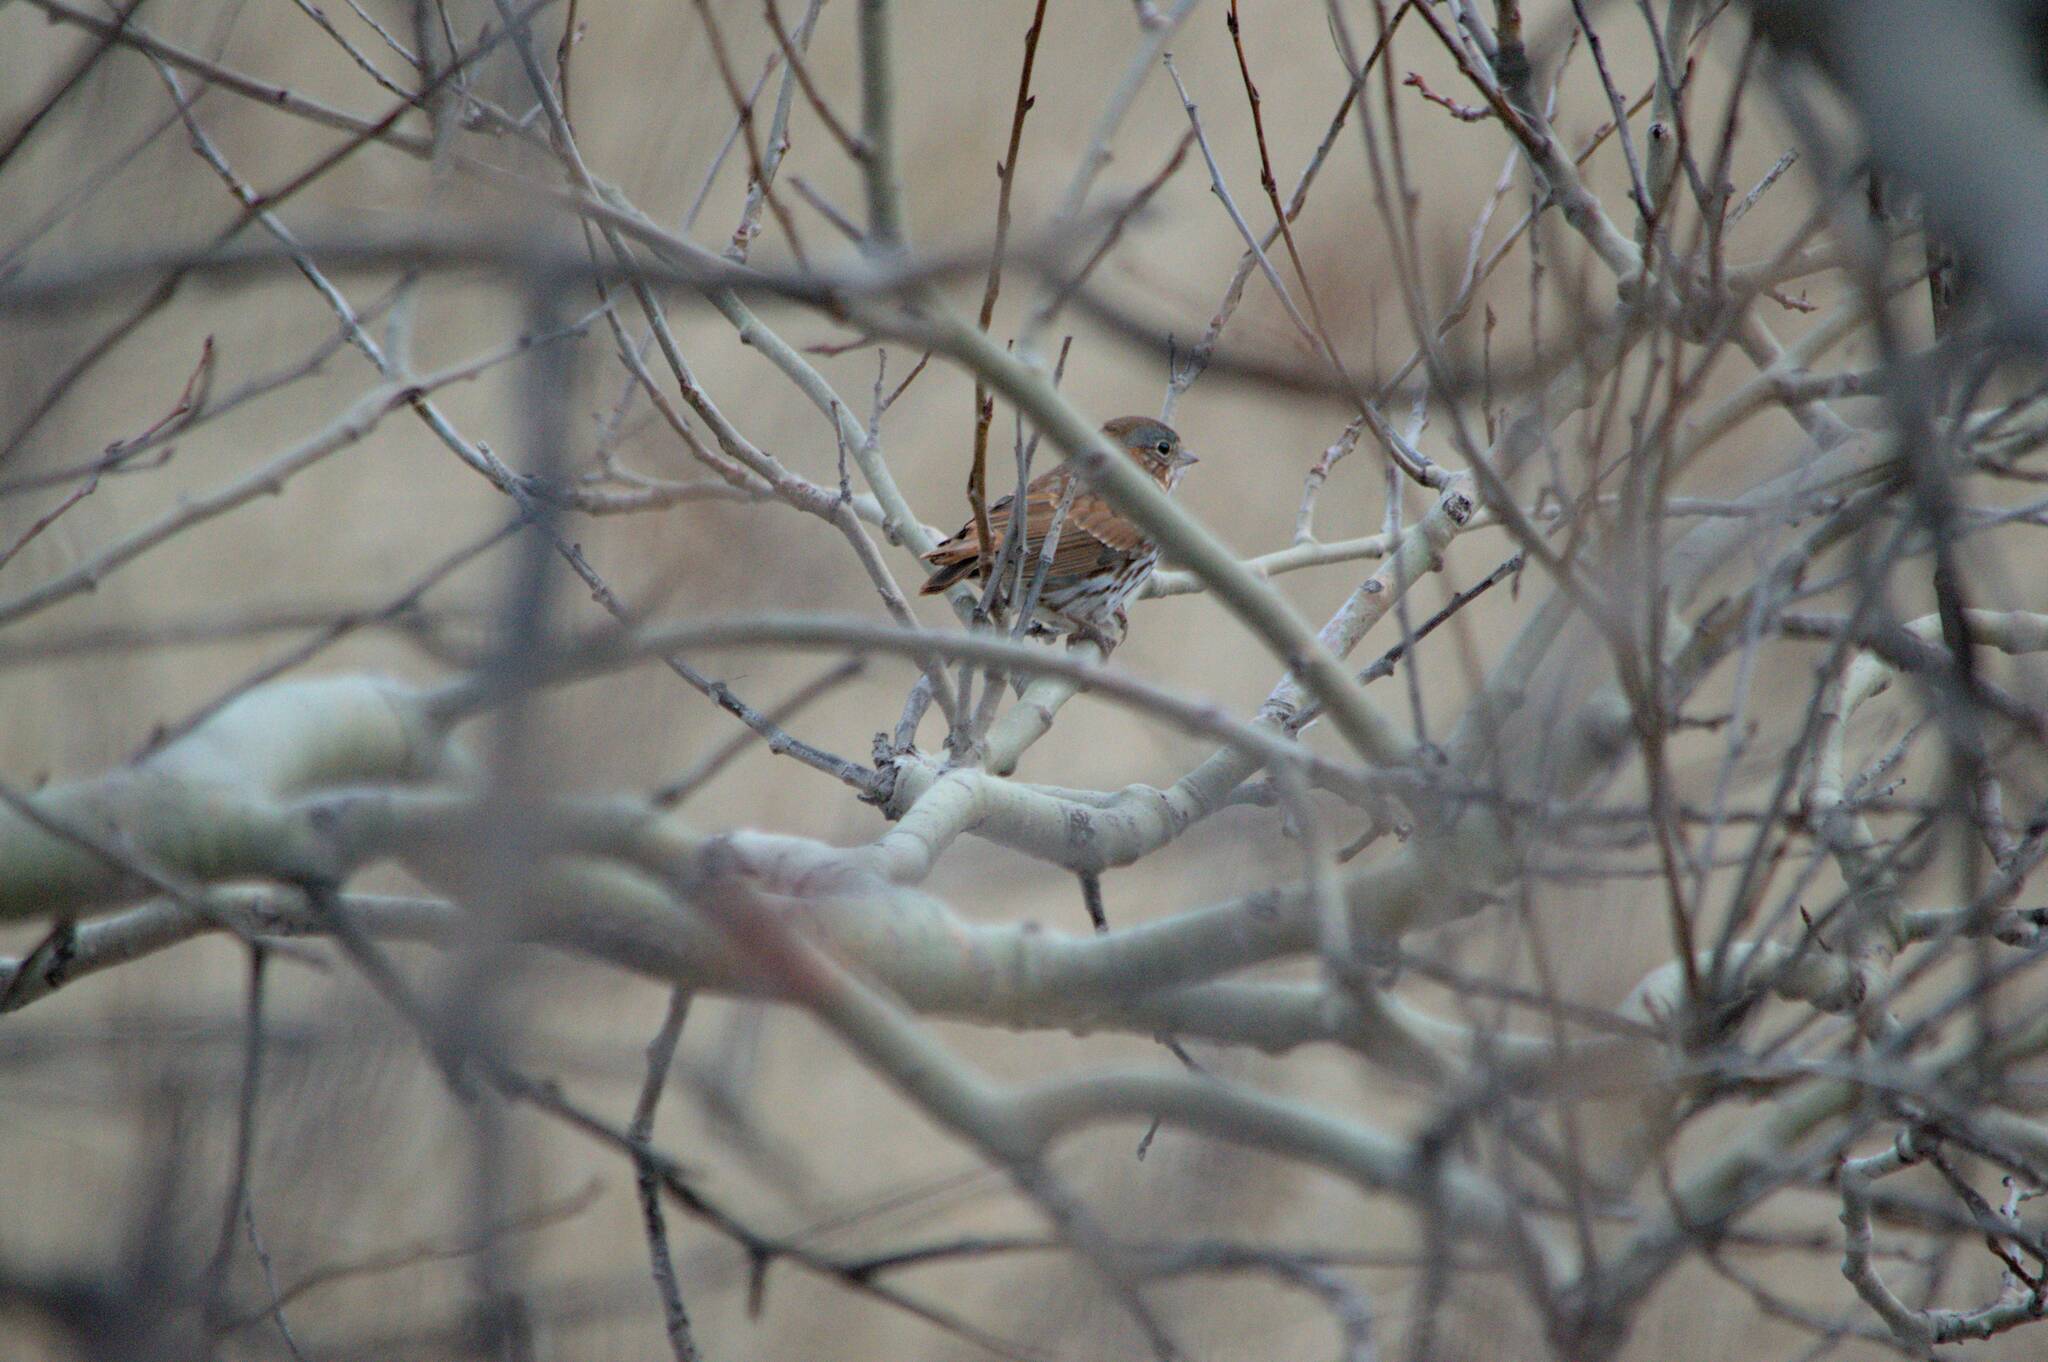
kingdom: Animalia
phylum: Chordata
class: Aves
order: Passeriformes
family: Passerellidae
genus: Passerella
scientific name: Passerella iliaca
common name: Fox sparrow
